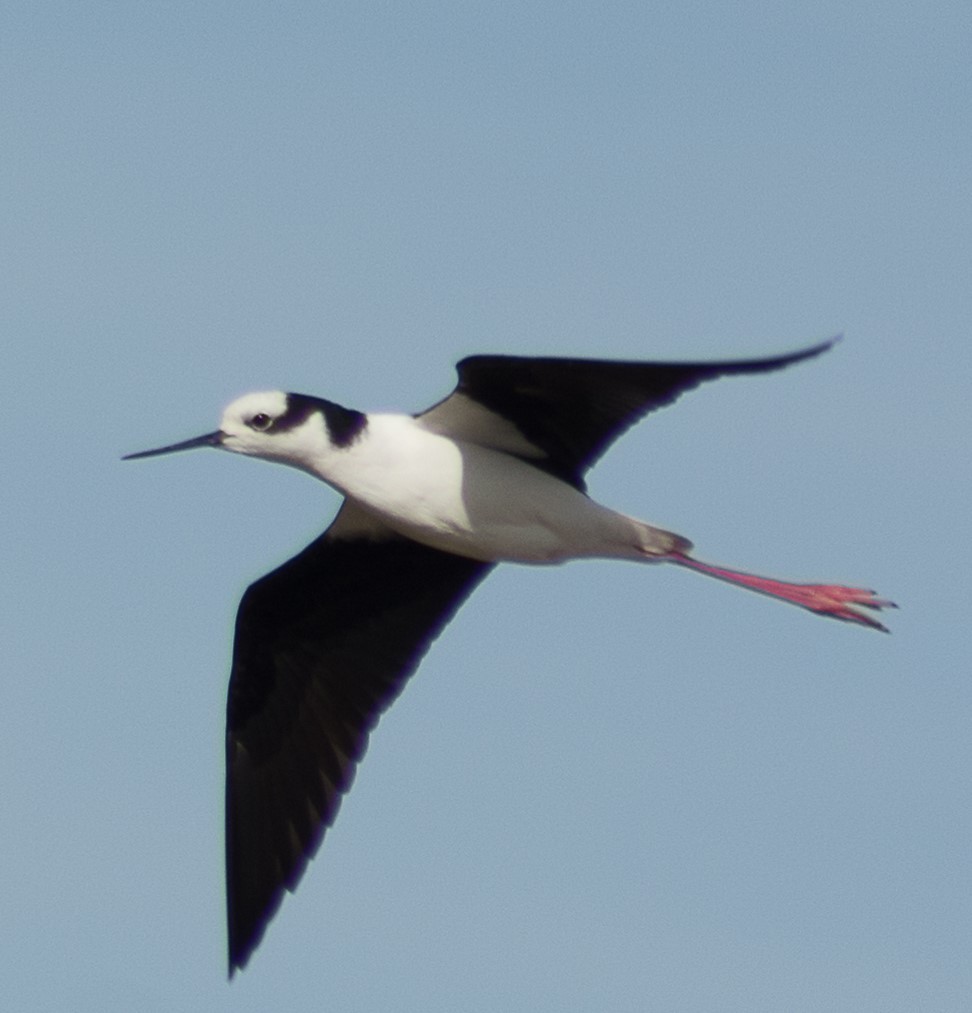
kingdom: Animalia
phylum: Chordata
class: Aves
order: Charadriiformes
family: Recurvirostridae
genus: Himantopus
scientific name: Himantopus mexicanus
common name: Black-necked stilt
